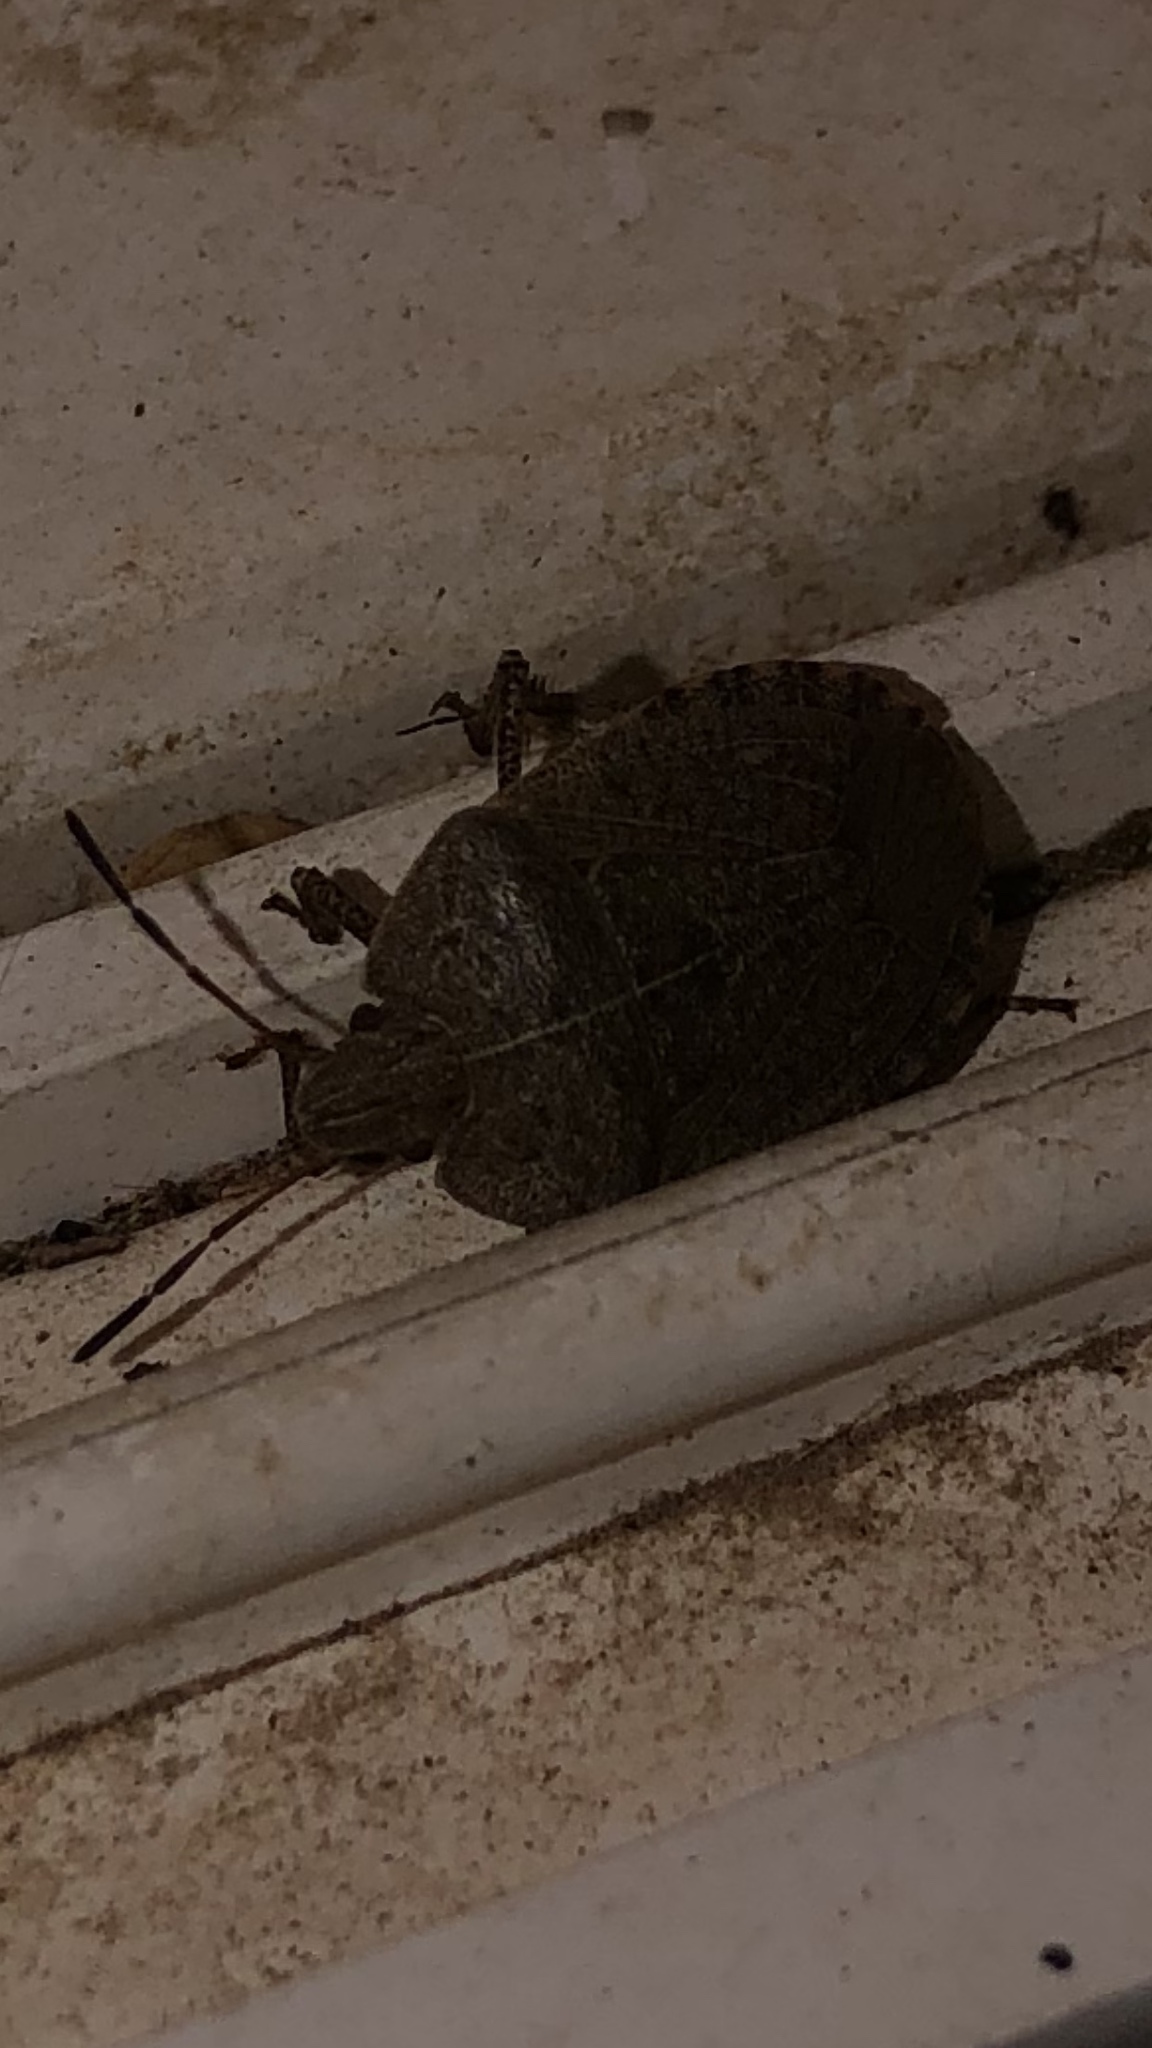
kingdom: Animalia
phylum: Arthropoda
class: Insecta
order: Hemiptera
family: Pentatomidae
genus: Menecles
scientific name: Menecles insertus
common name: Elf shoe stink bug
